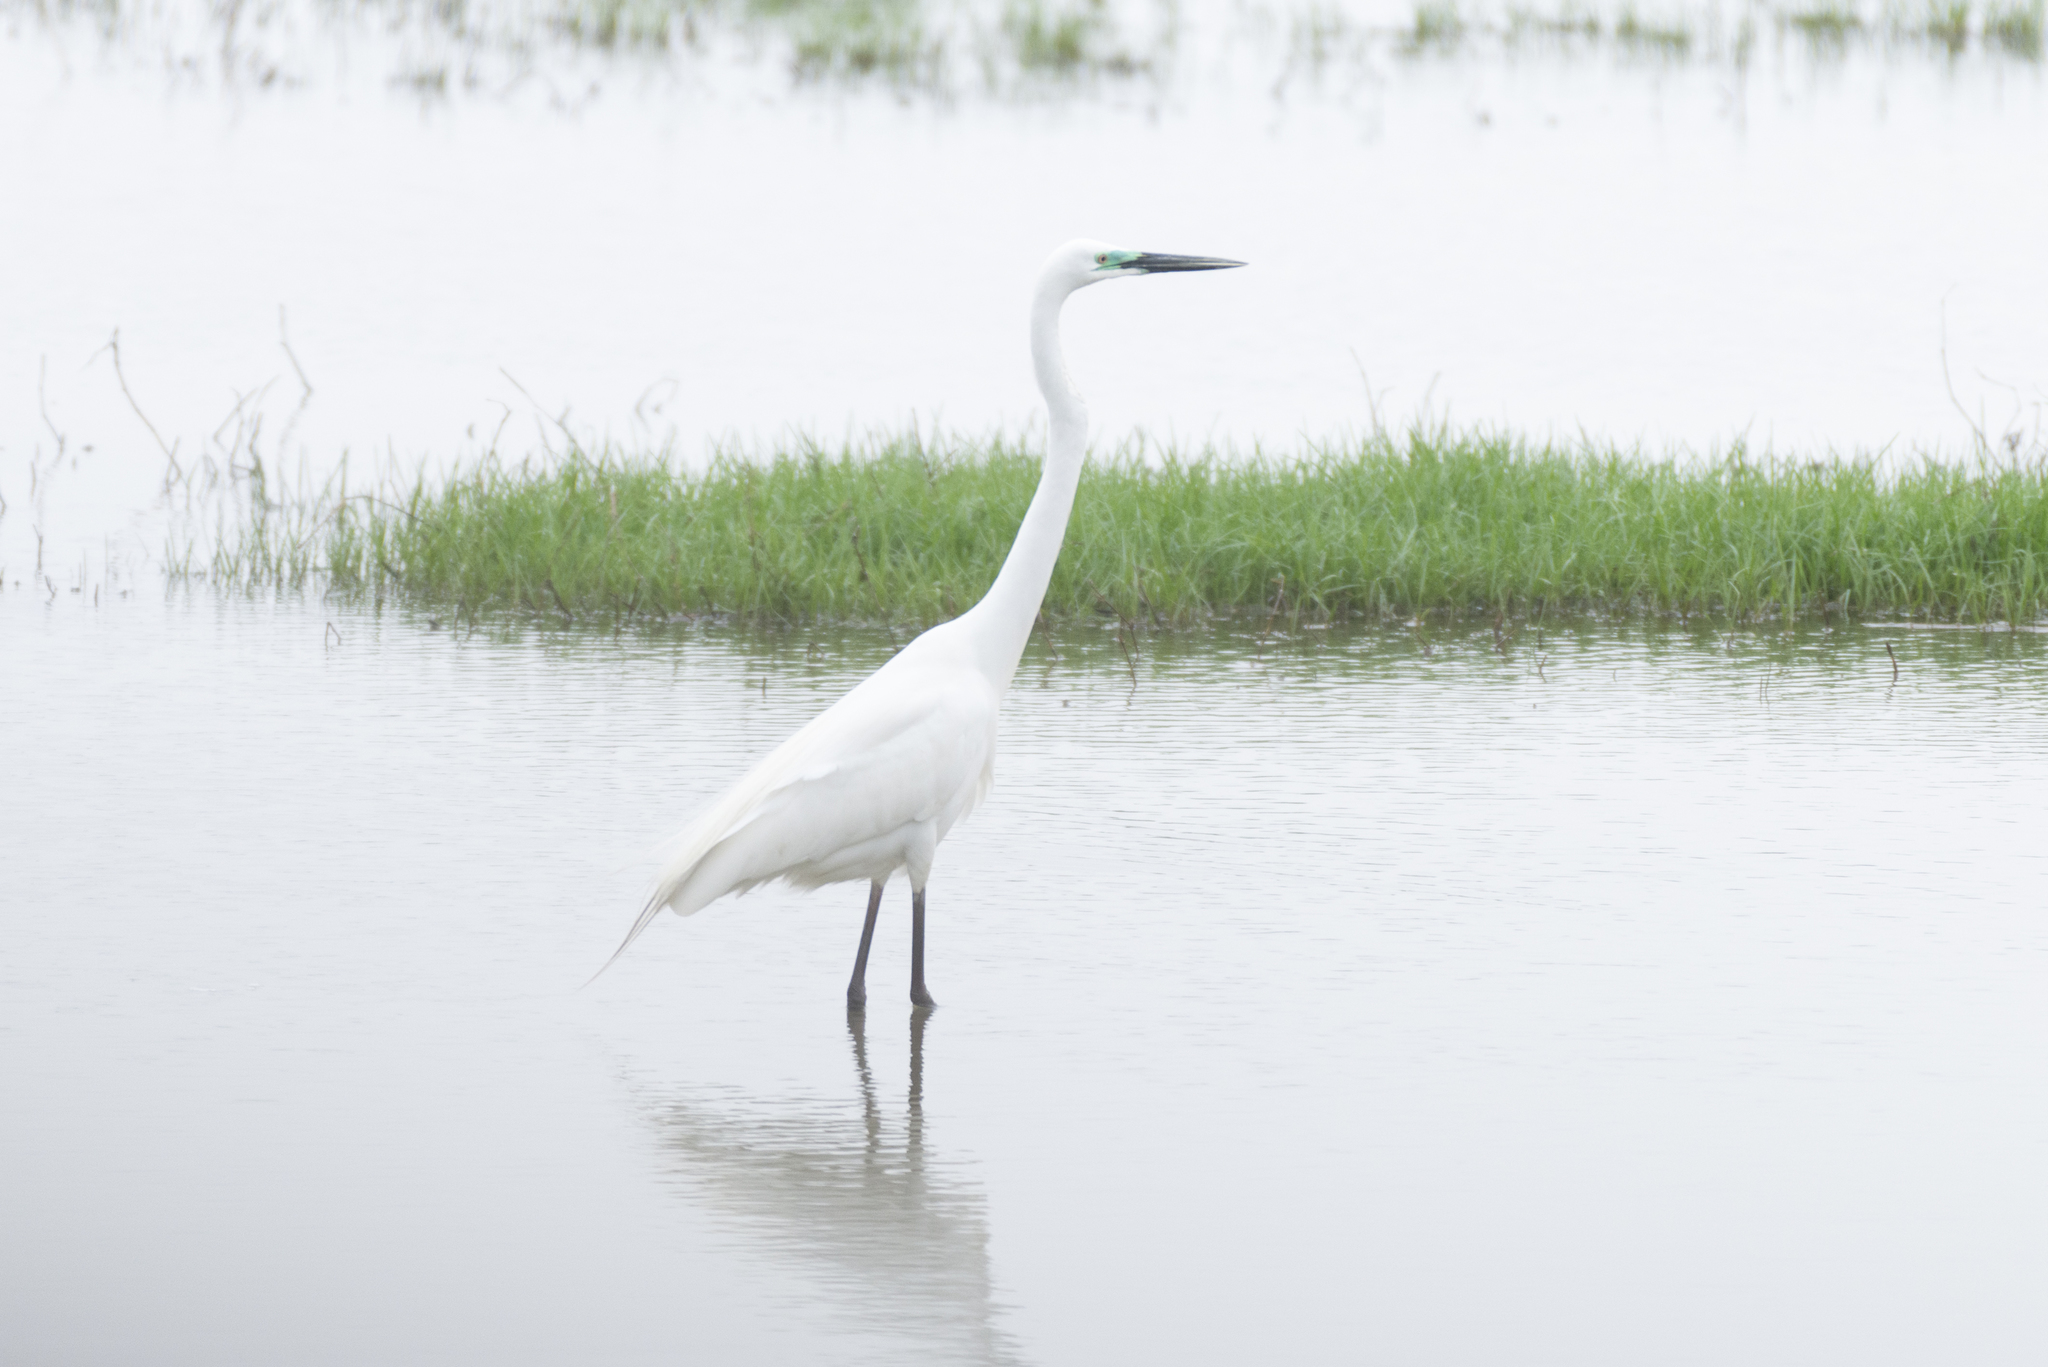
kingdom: Animalia
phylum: Chordata
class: Aves
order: Pelecaniformes
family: Ardeidae
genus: Ardea
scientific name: Ardea alba
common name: Great egret
